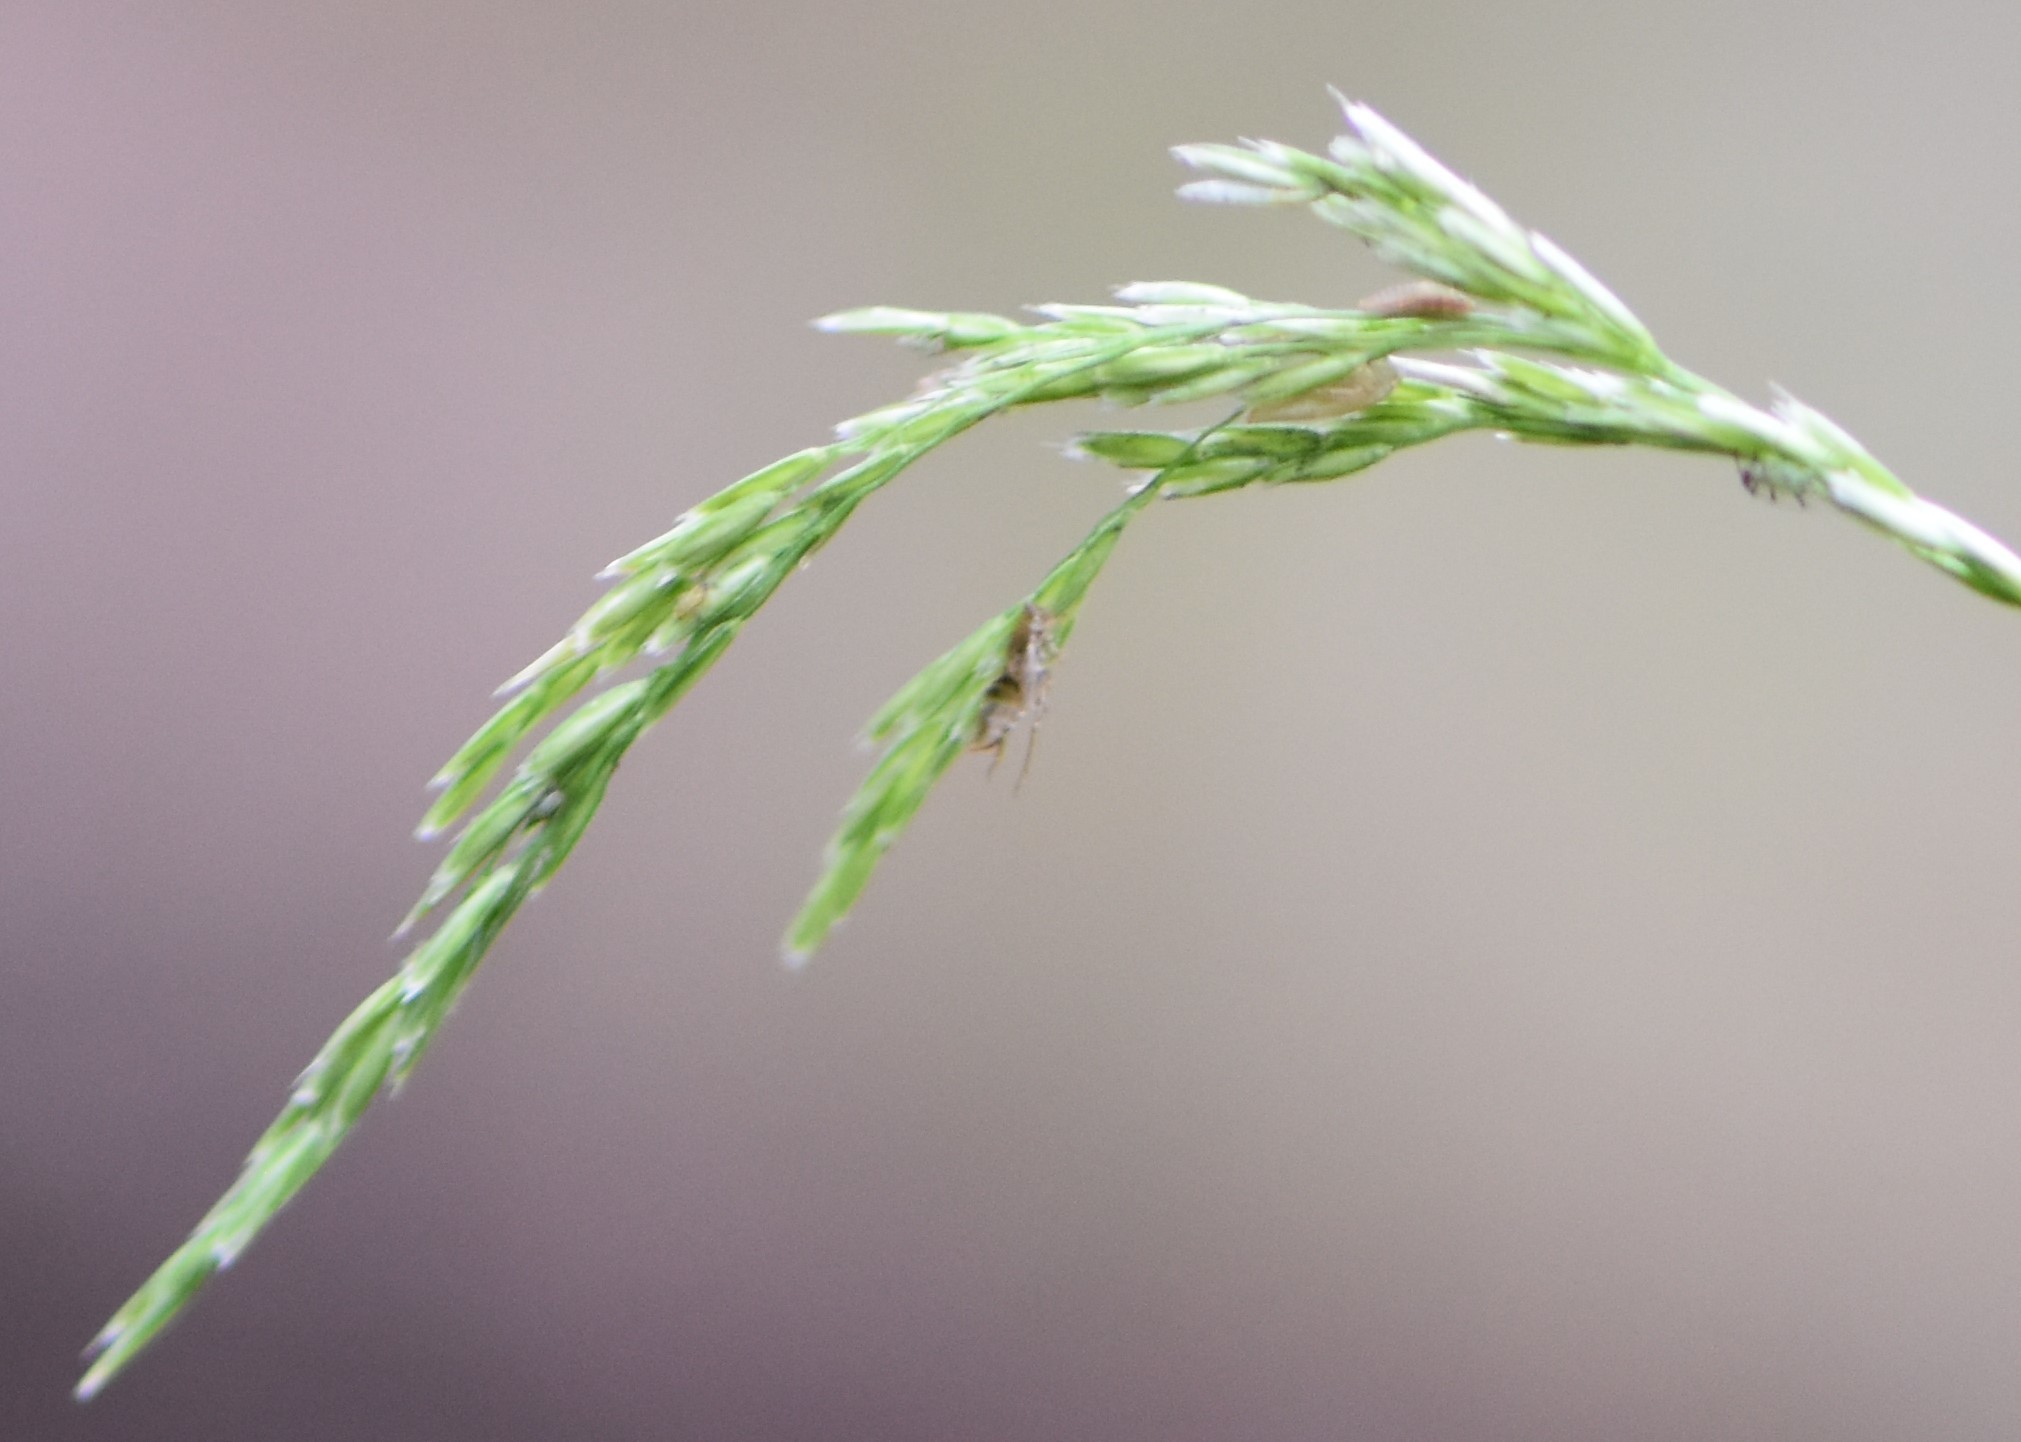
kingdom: Plantae
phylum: Tracheophyta
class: Liliopsida
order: Poales
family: Poaceae
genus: Cinna
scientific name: Cinna latifolia
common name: Drooping woodreed
